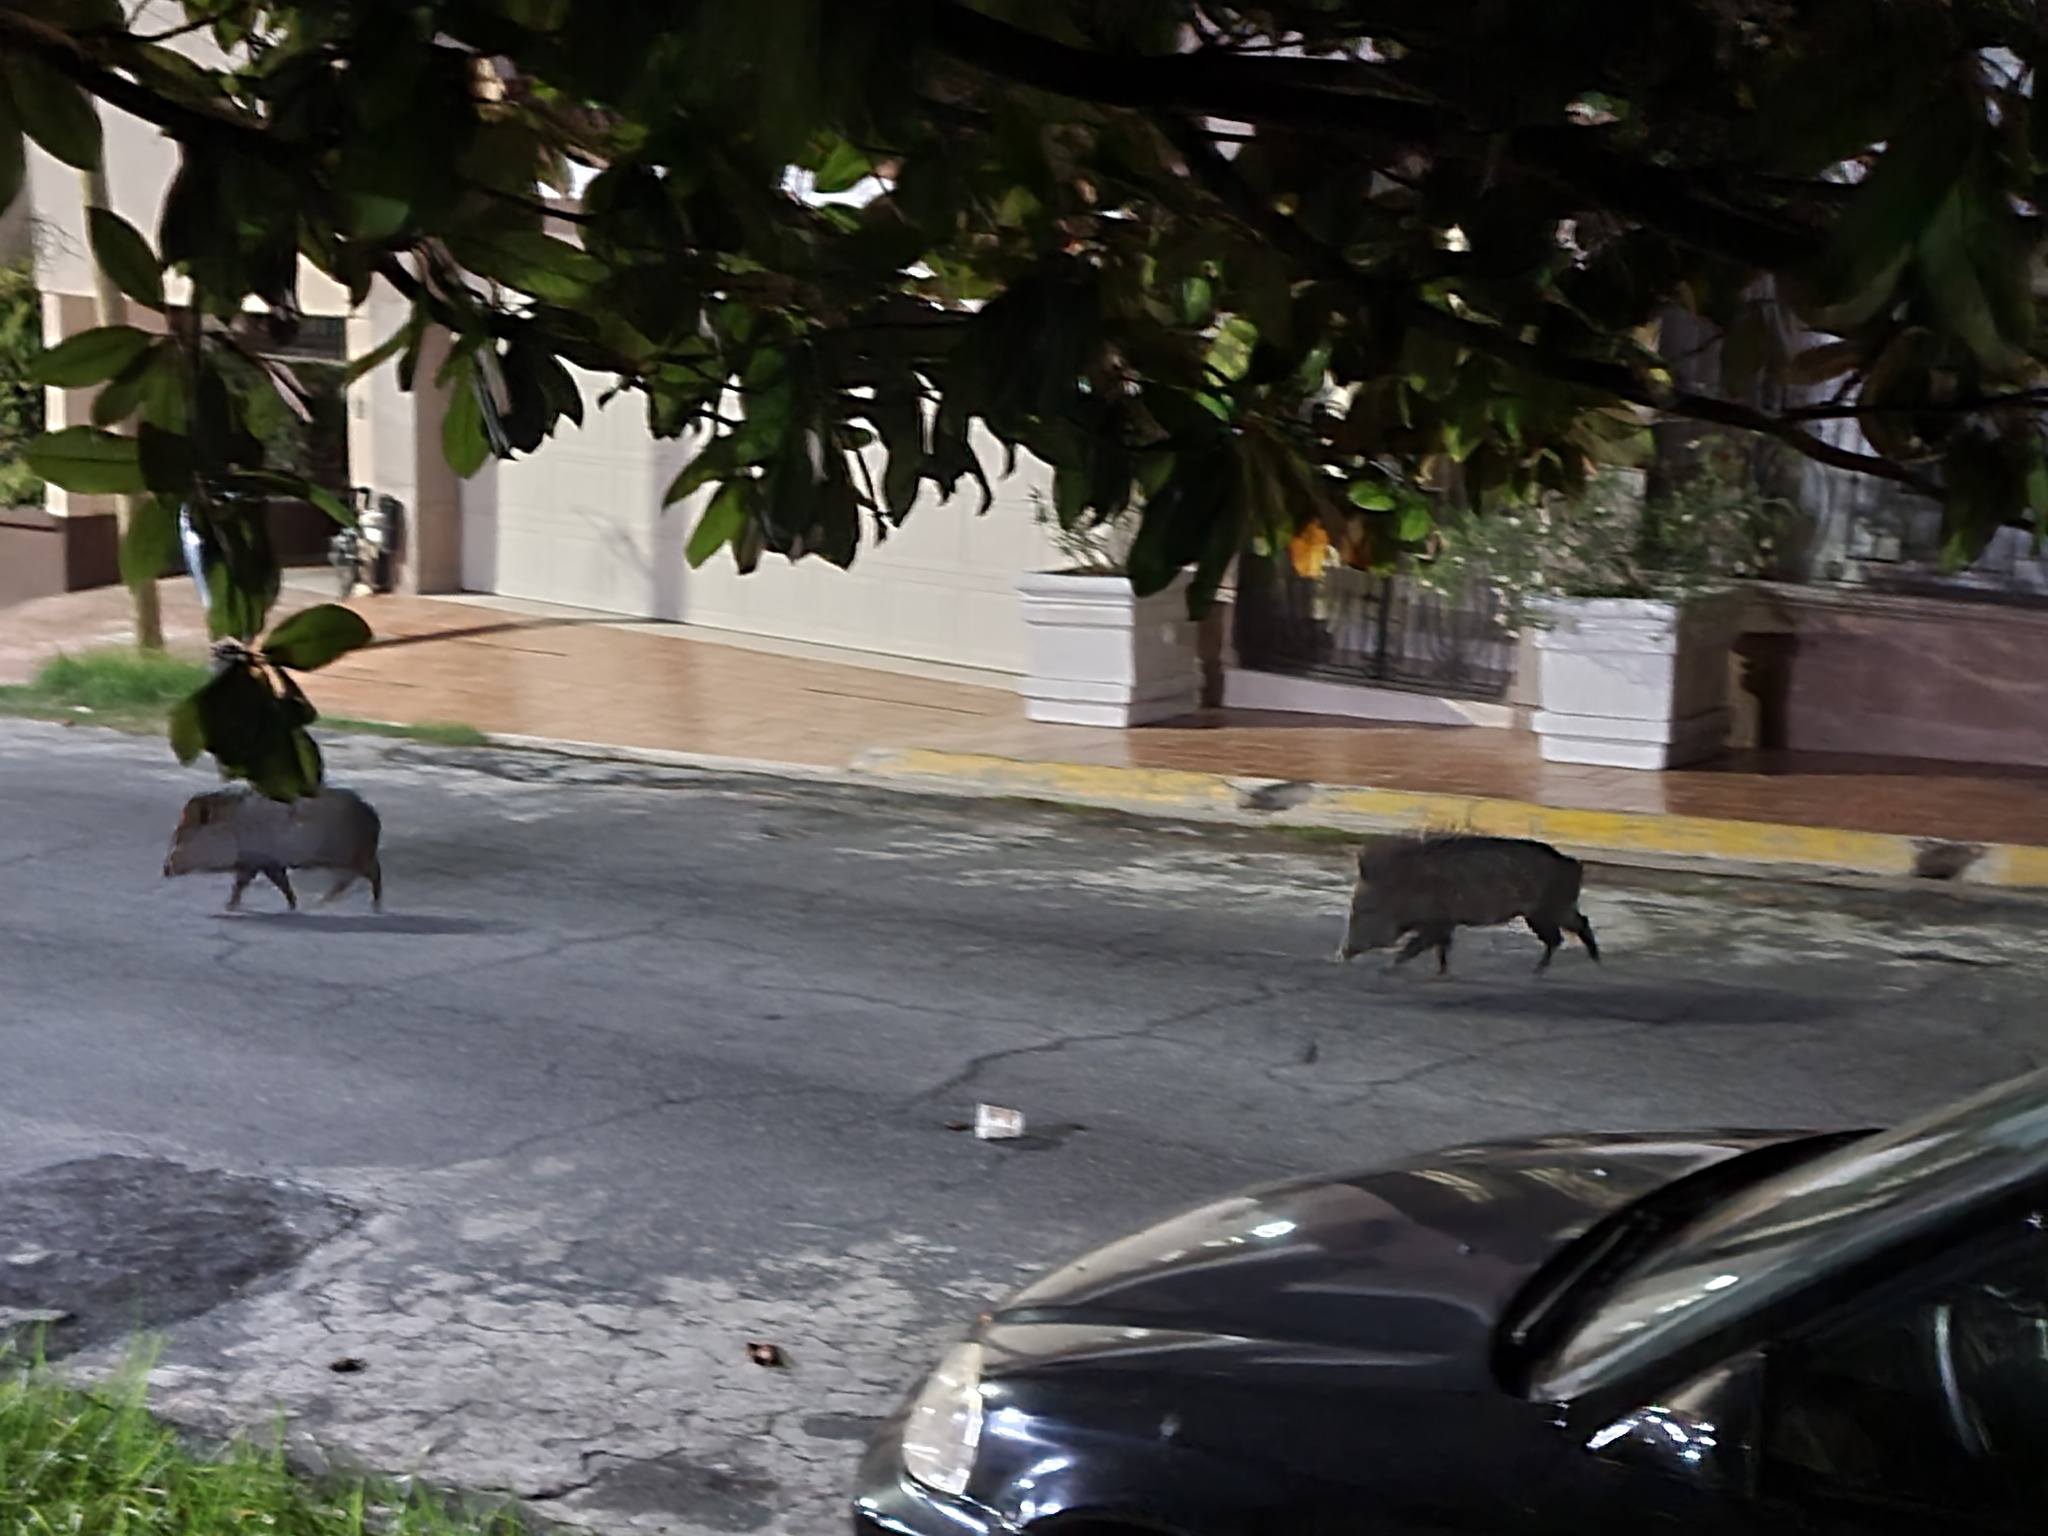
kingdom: Animalia
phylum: Chordata
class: Mammalia
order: Artiodactyla
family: Tayassuidae
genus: Pecari
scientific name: Pecari tajacu
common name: Collared peccary
